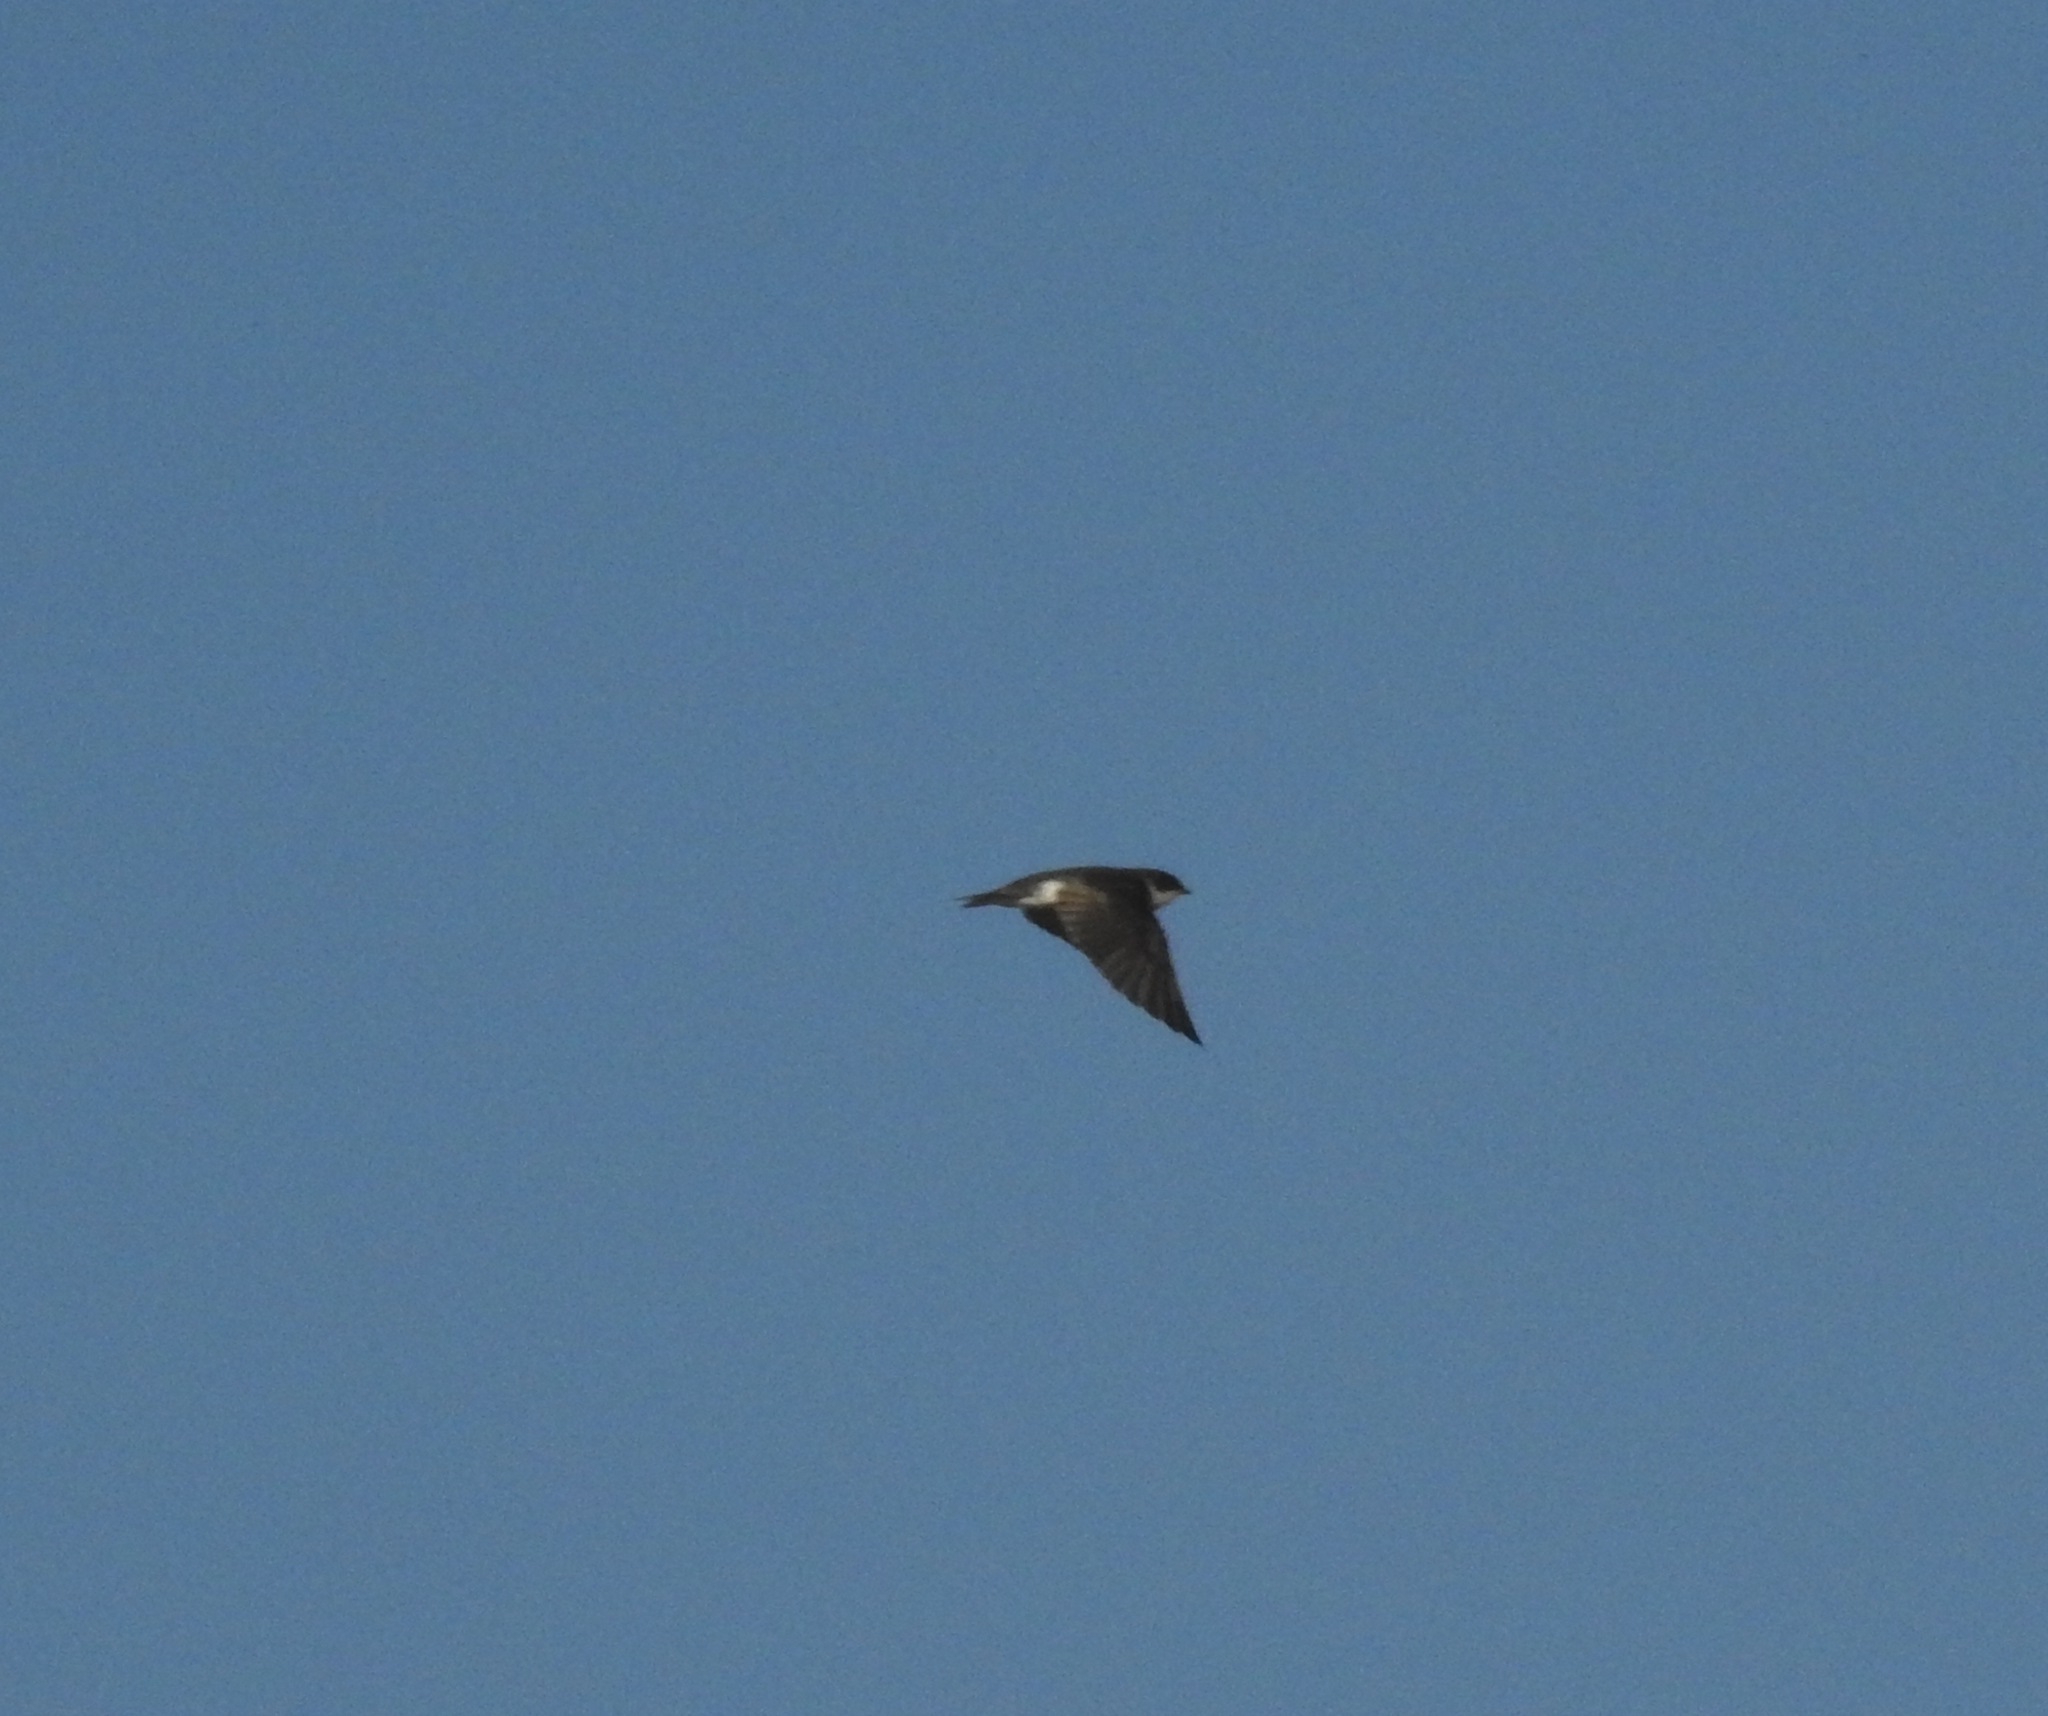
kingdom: Animalia
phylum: Chordata
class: Aves
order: Passeriformes
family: Hirundinidae
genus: Tachycineta
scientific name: Tachycineta bicolor
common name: Tree swallow
